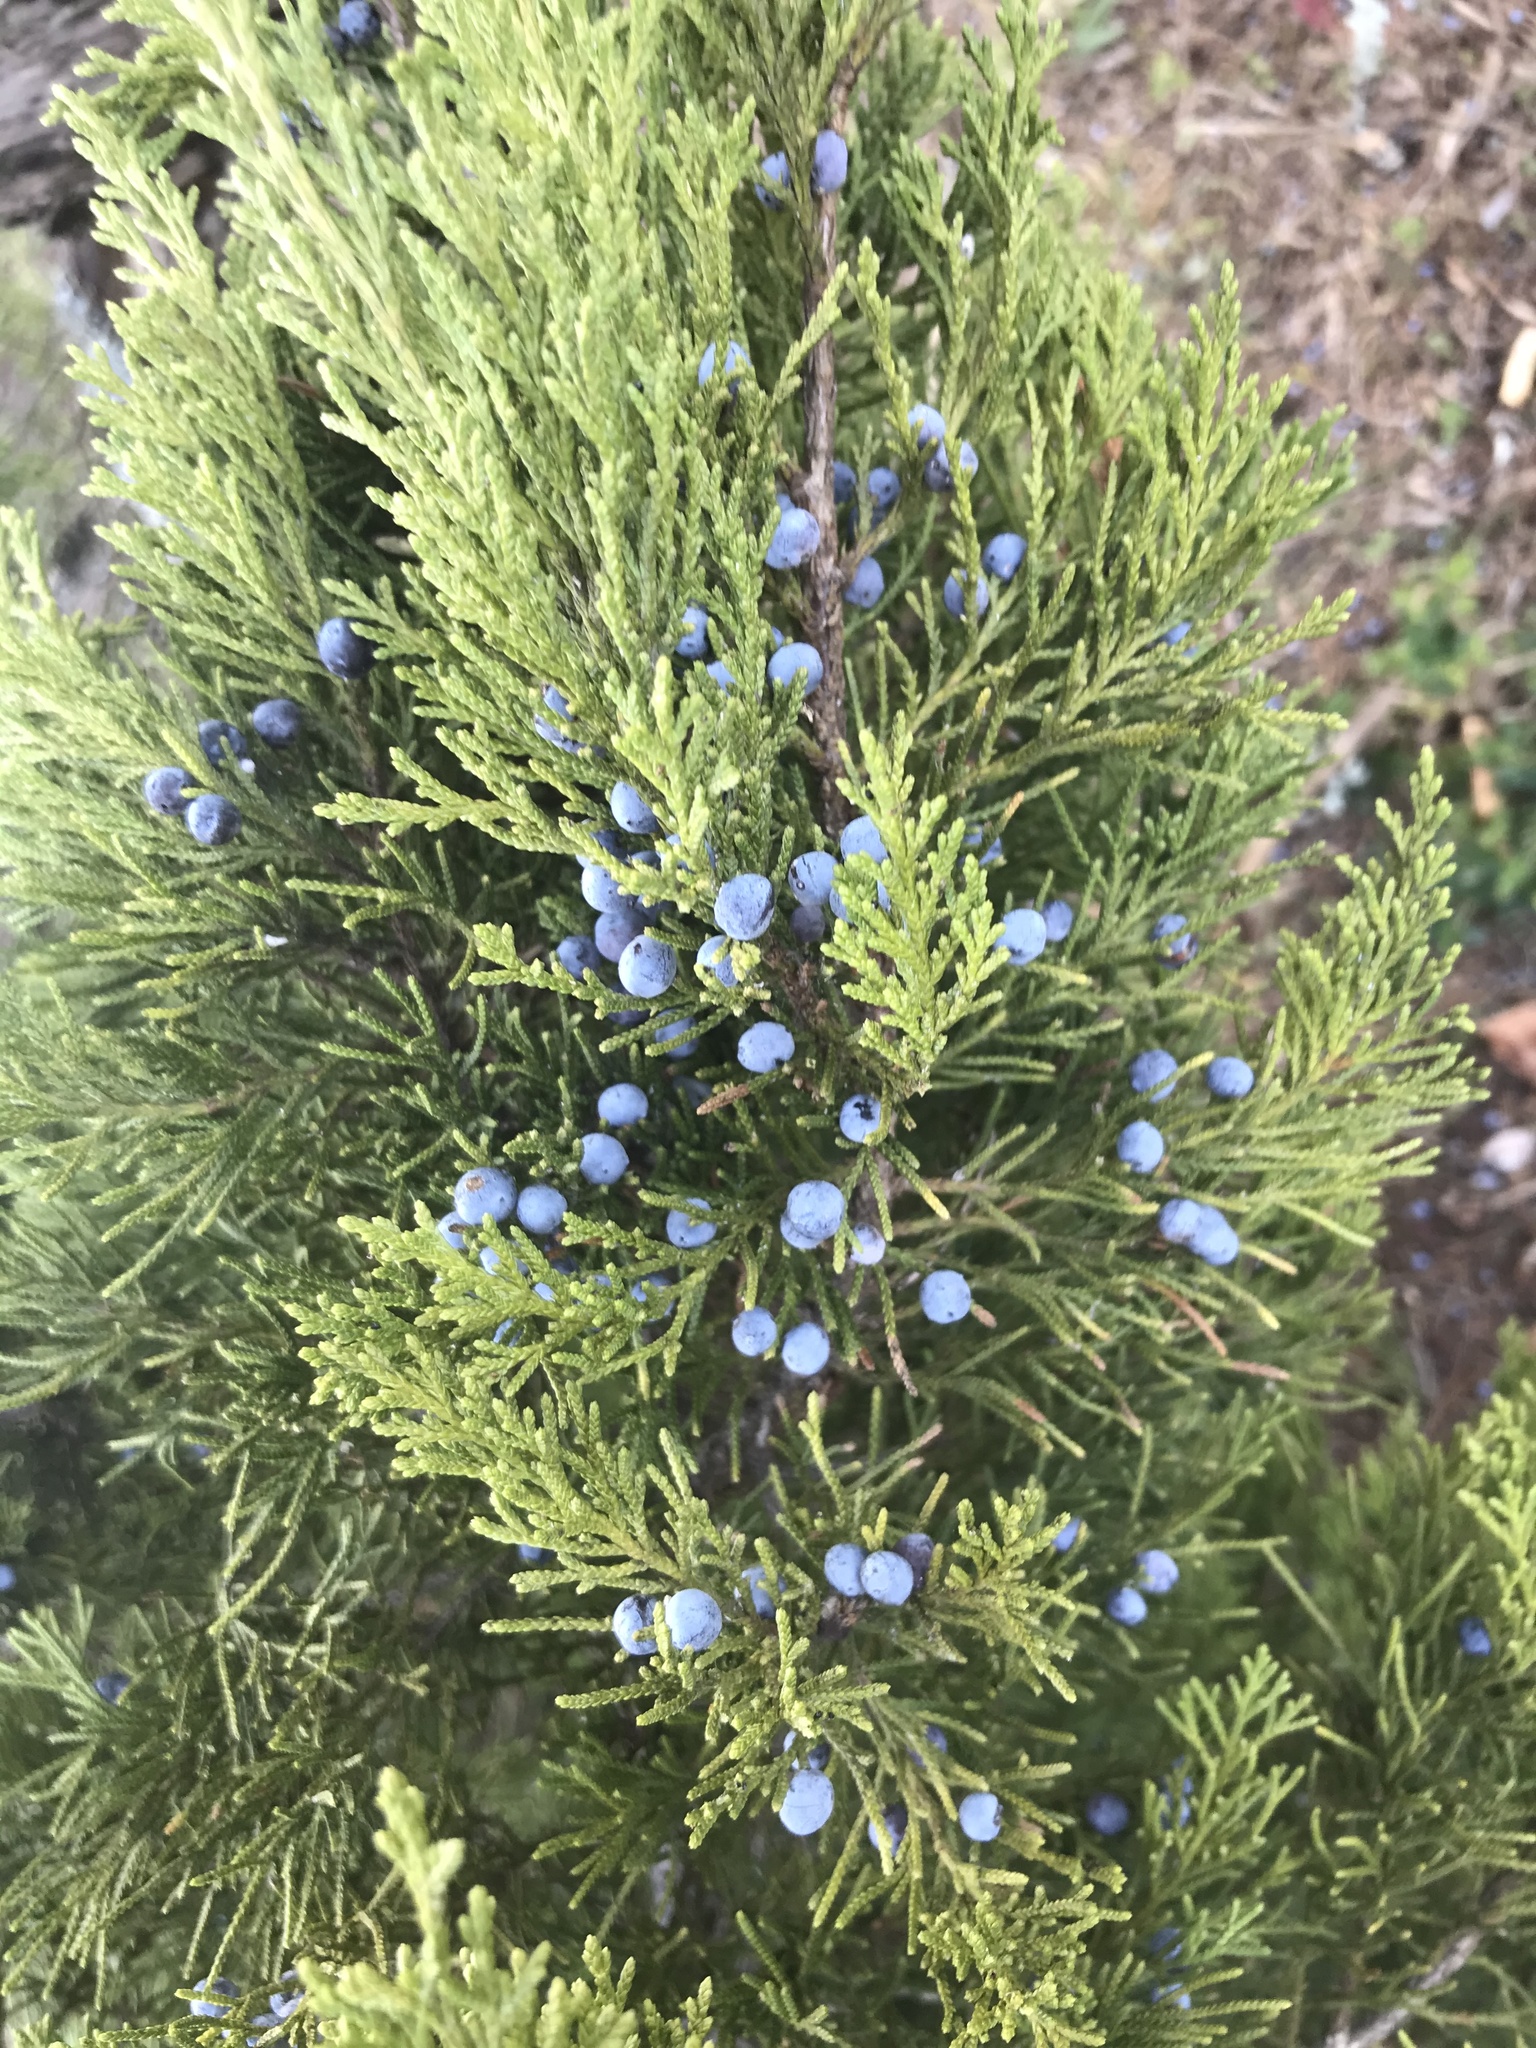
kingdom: Plantae
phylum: Tracheophyta
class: Pinopsida
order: Pinales
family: Cupressaceae
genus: Juniperus
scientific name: Juniperus virginiana
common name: Red juniper
